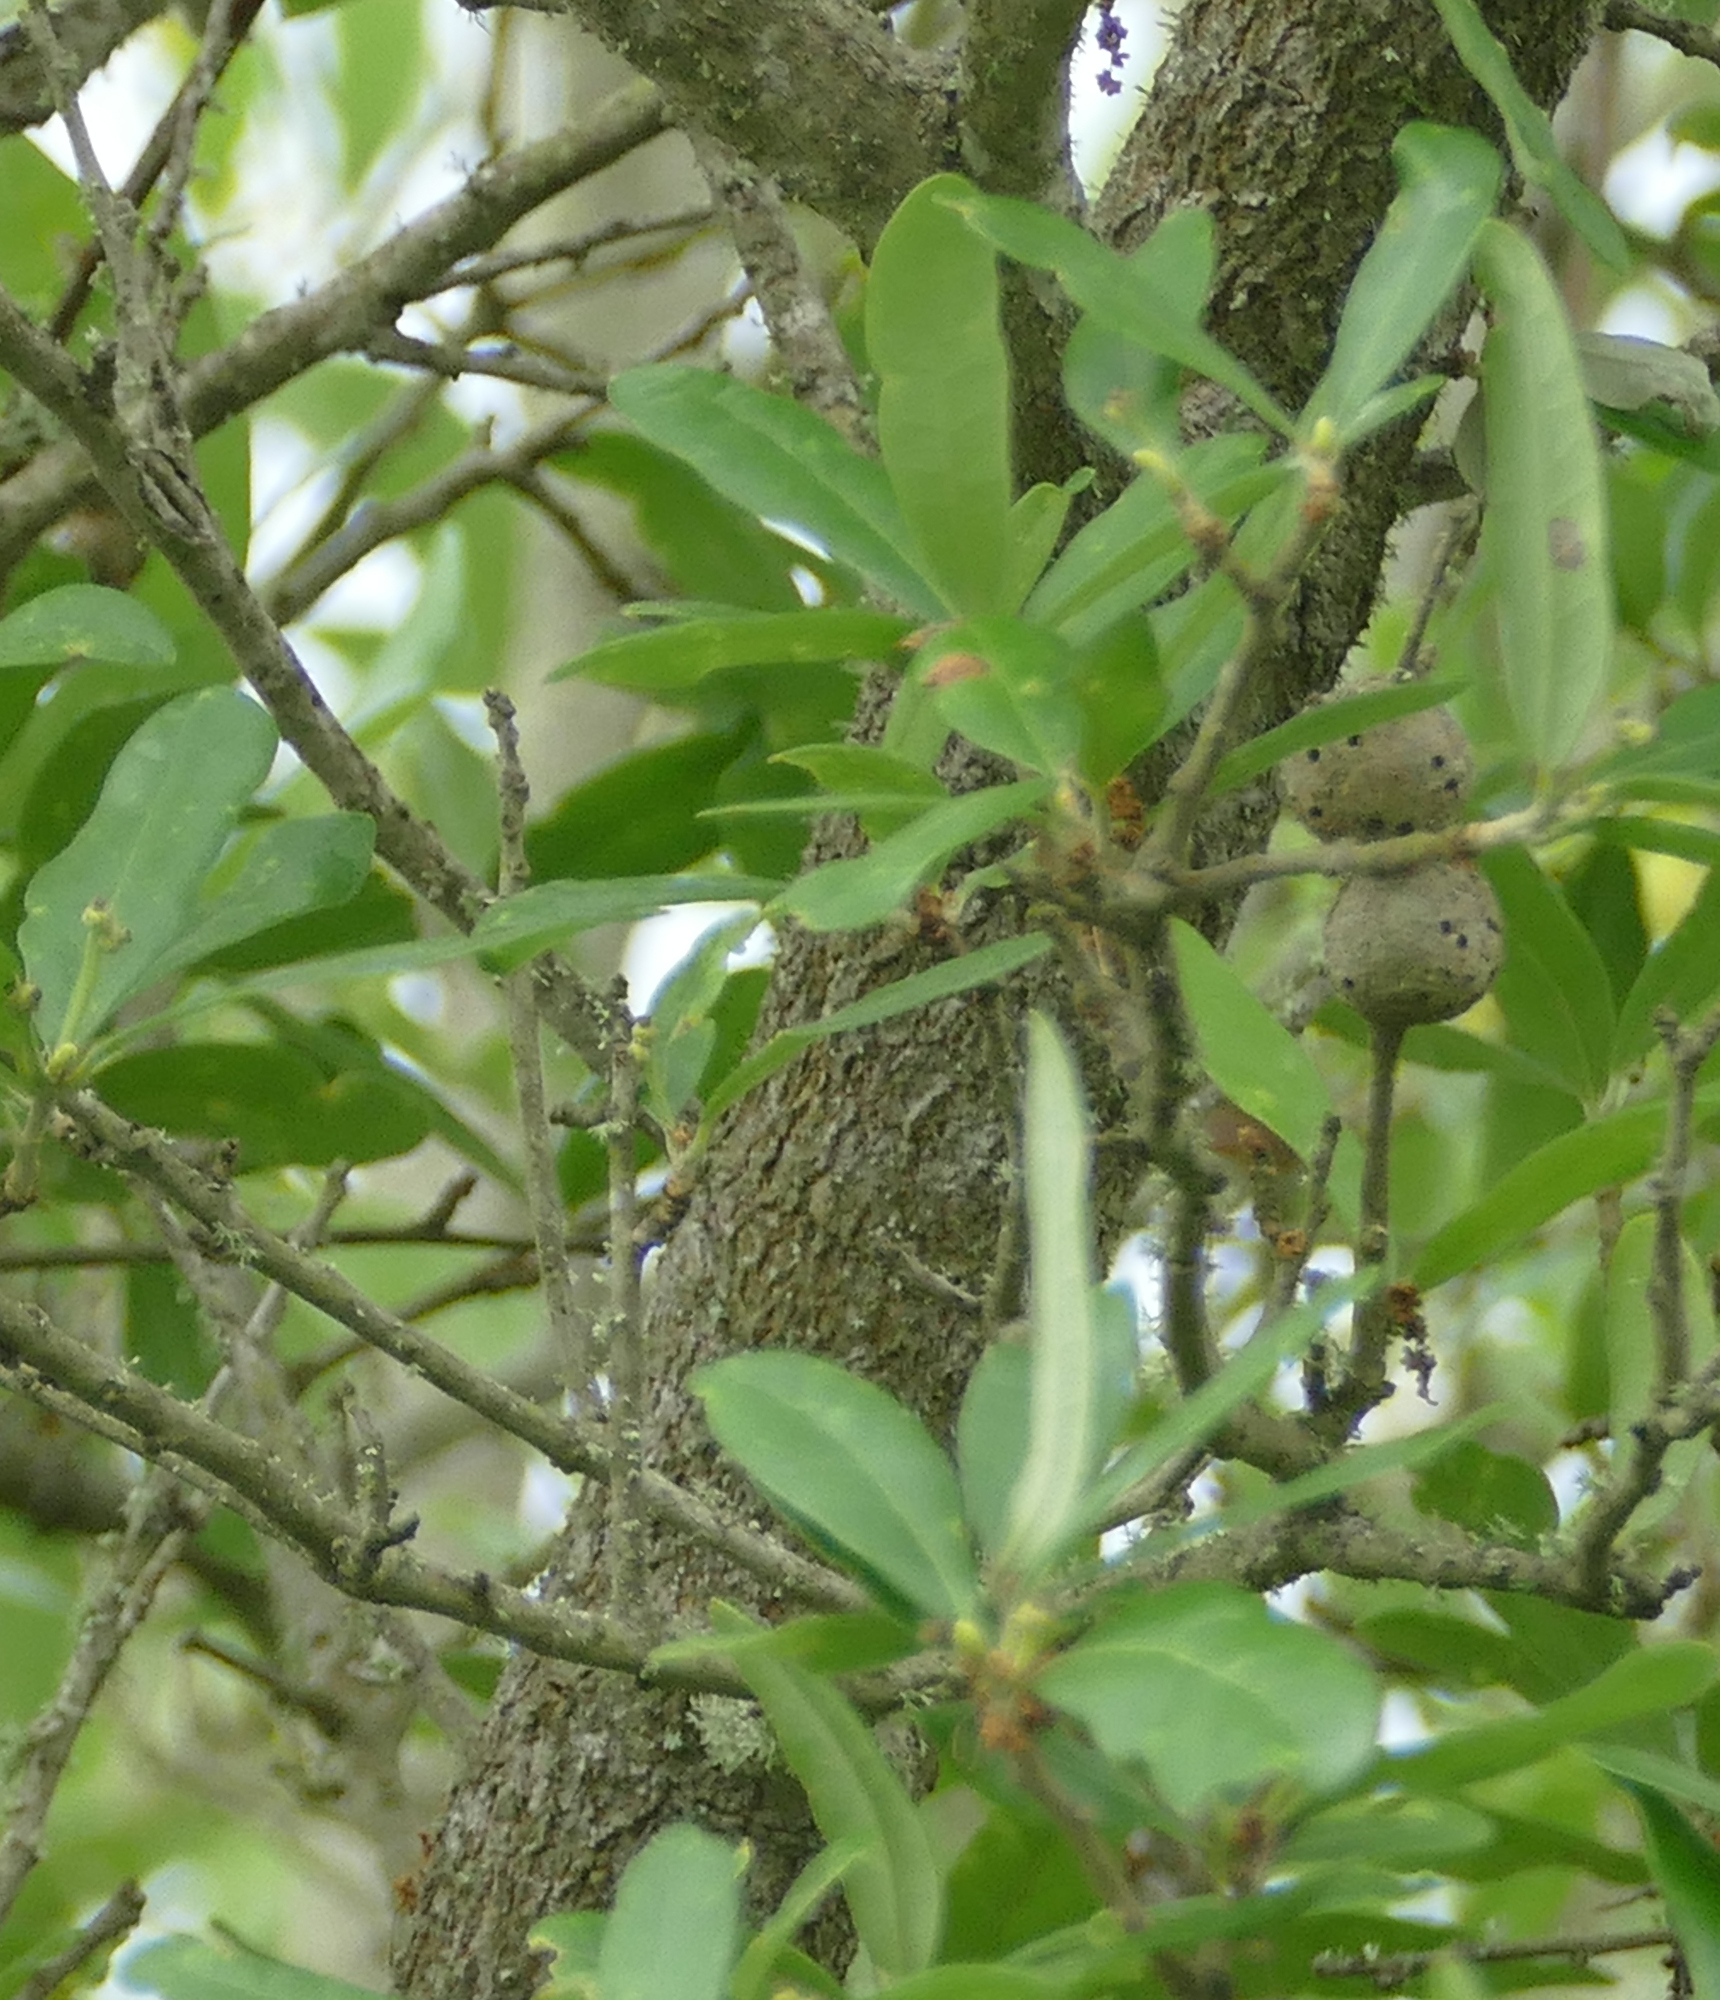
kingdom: Animalia
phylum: Arthropoda
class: Insecta
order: Hymenoptera
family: Cynipidae
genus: Callirhytis
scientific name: Callirhytis
